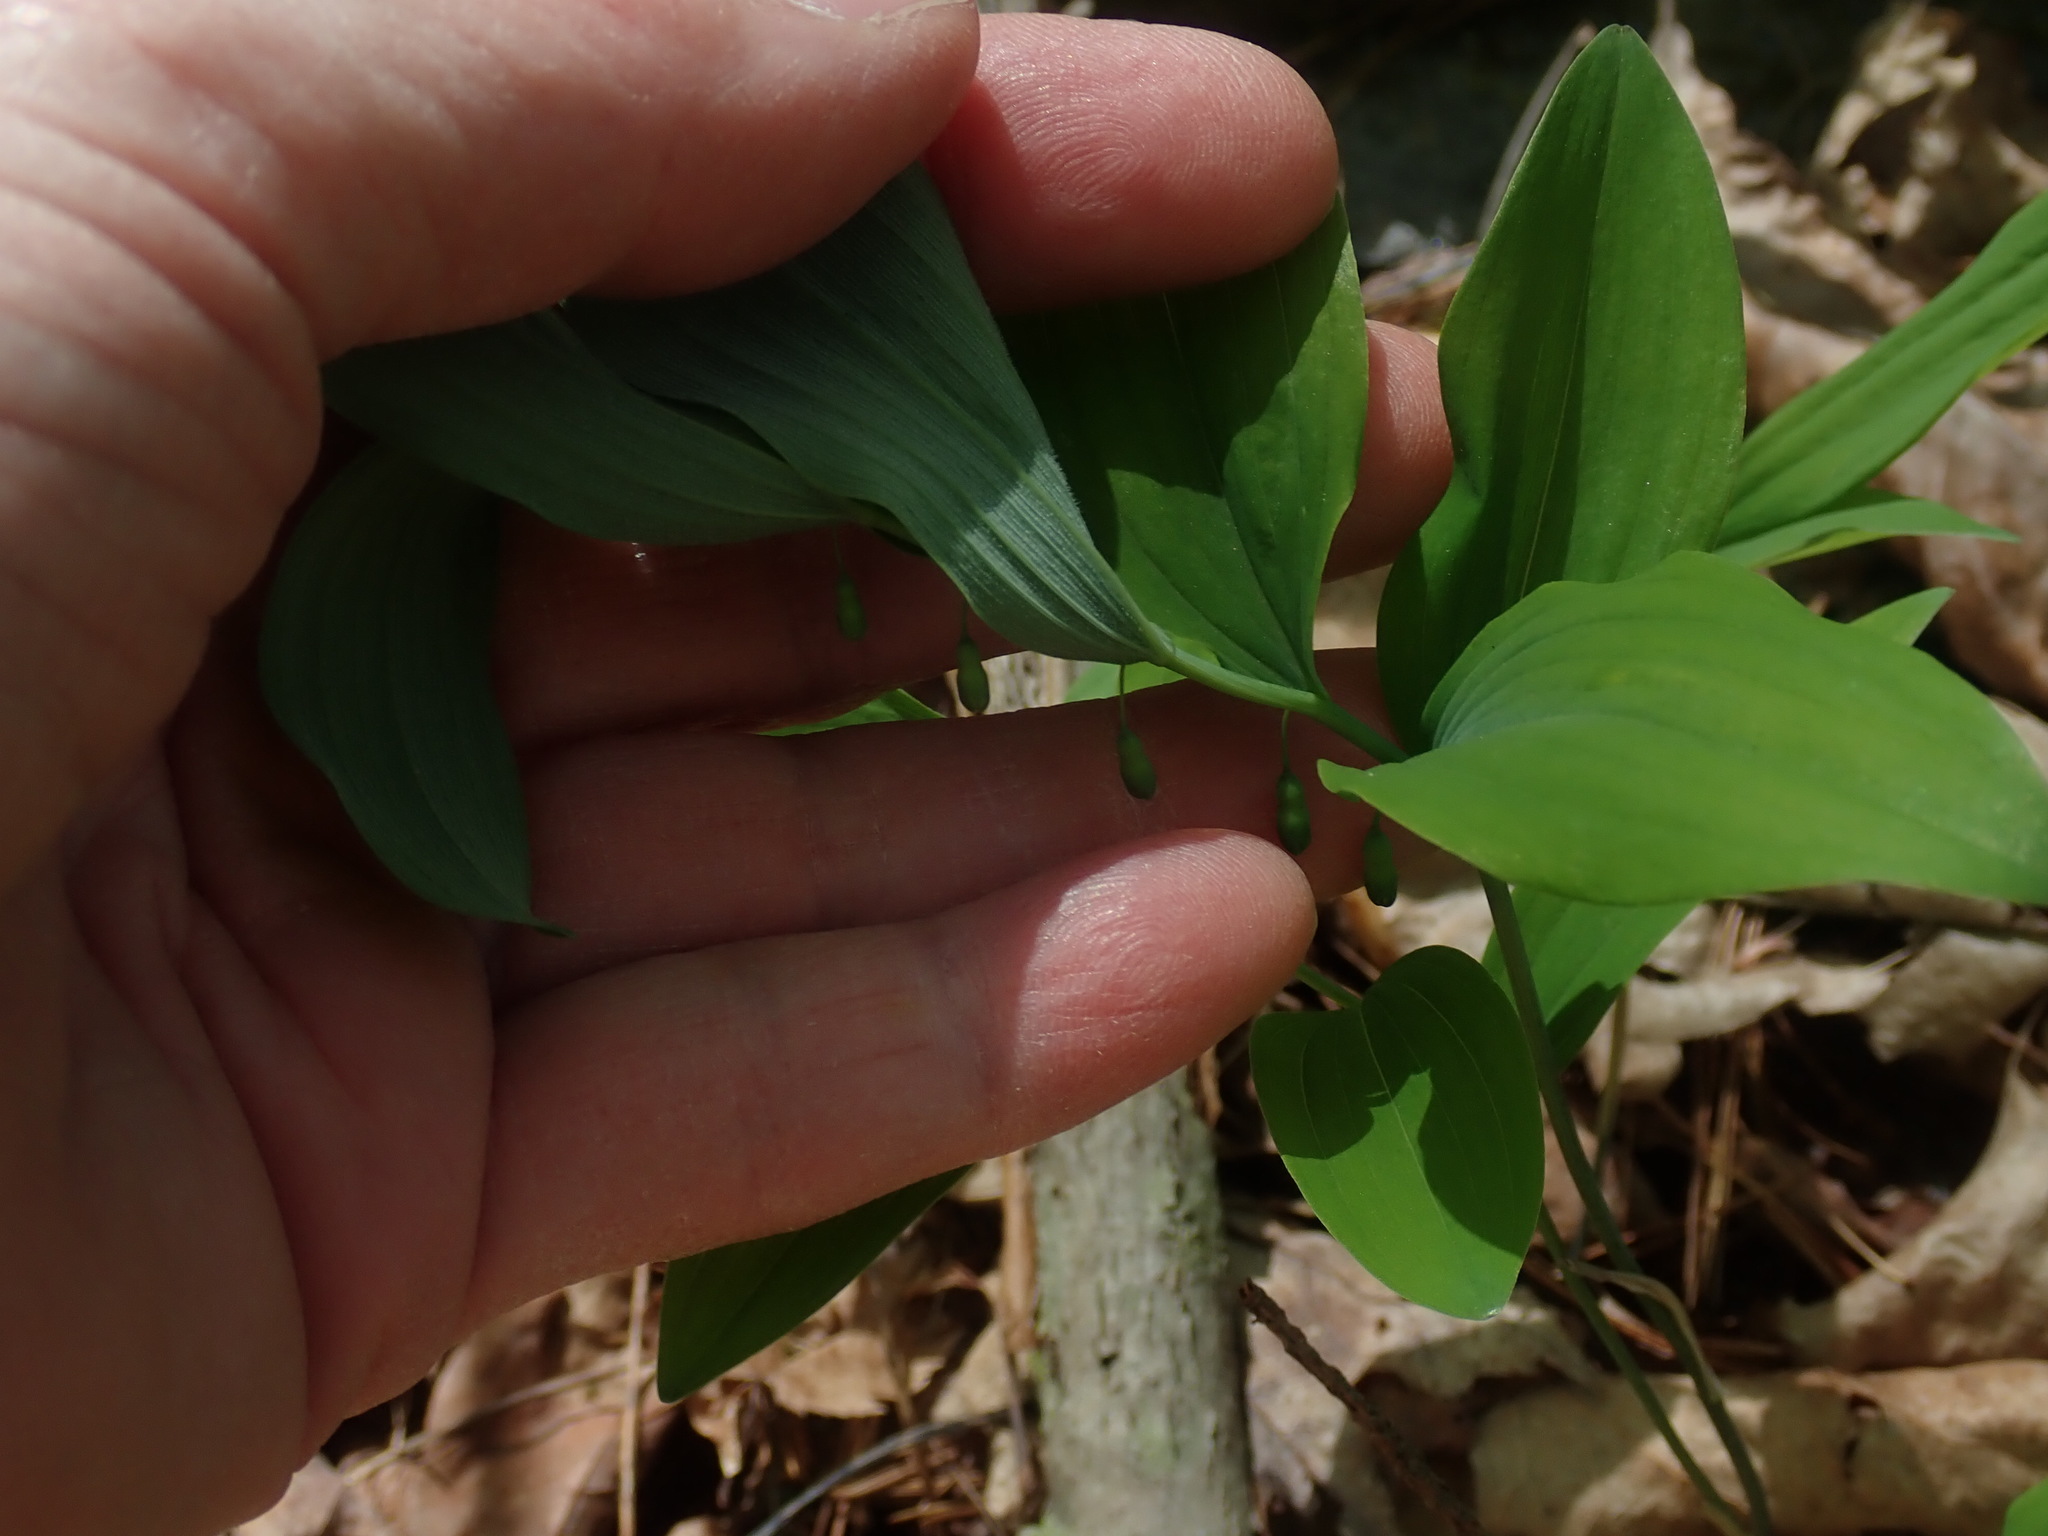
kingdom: Plantae
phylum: Tracheophyta
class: Liliopsida
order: Asparagales
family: Asparagaceae
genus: Polygonatum
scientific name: Polygonatum pubescens
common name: Downy solomon's seal
